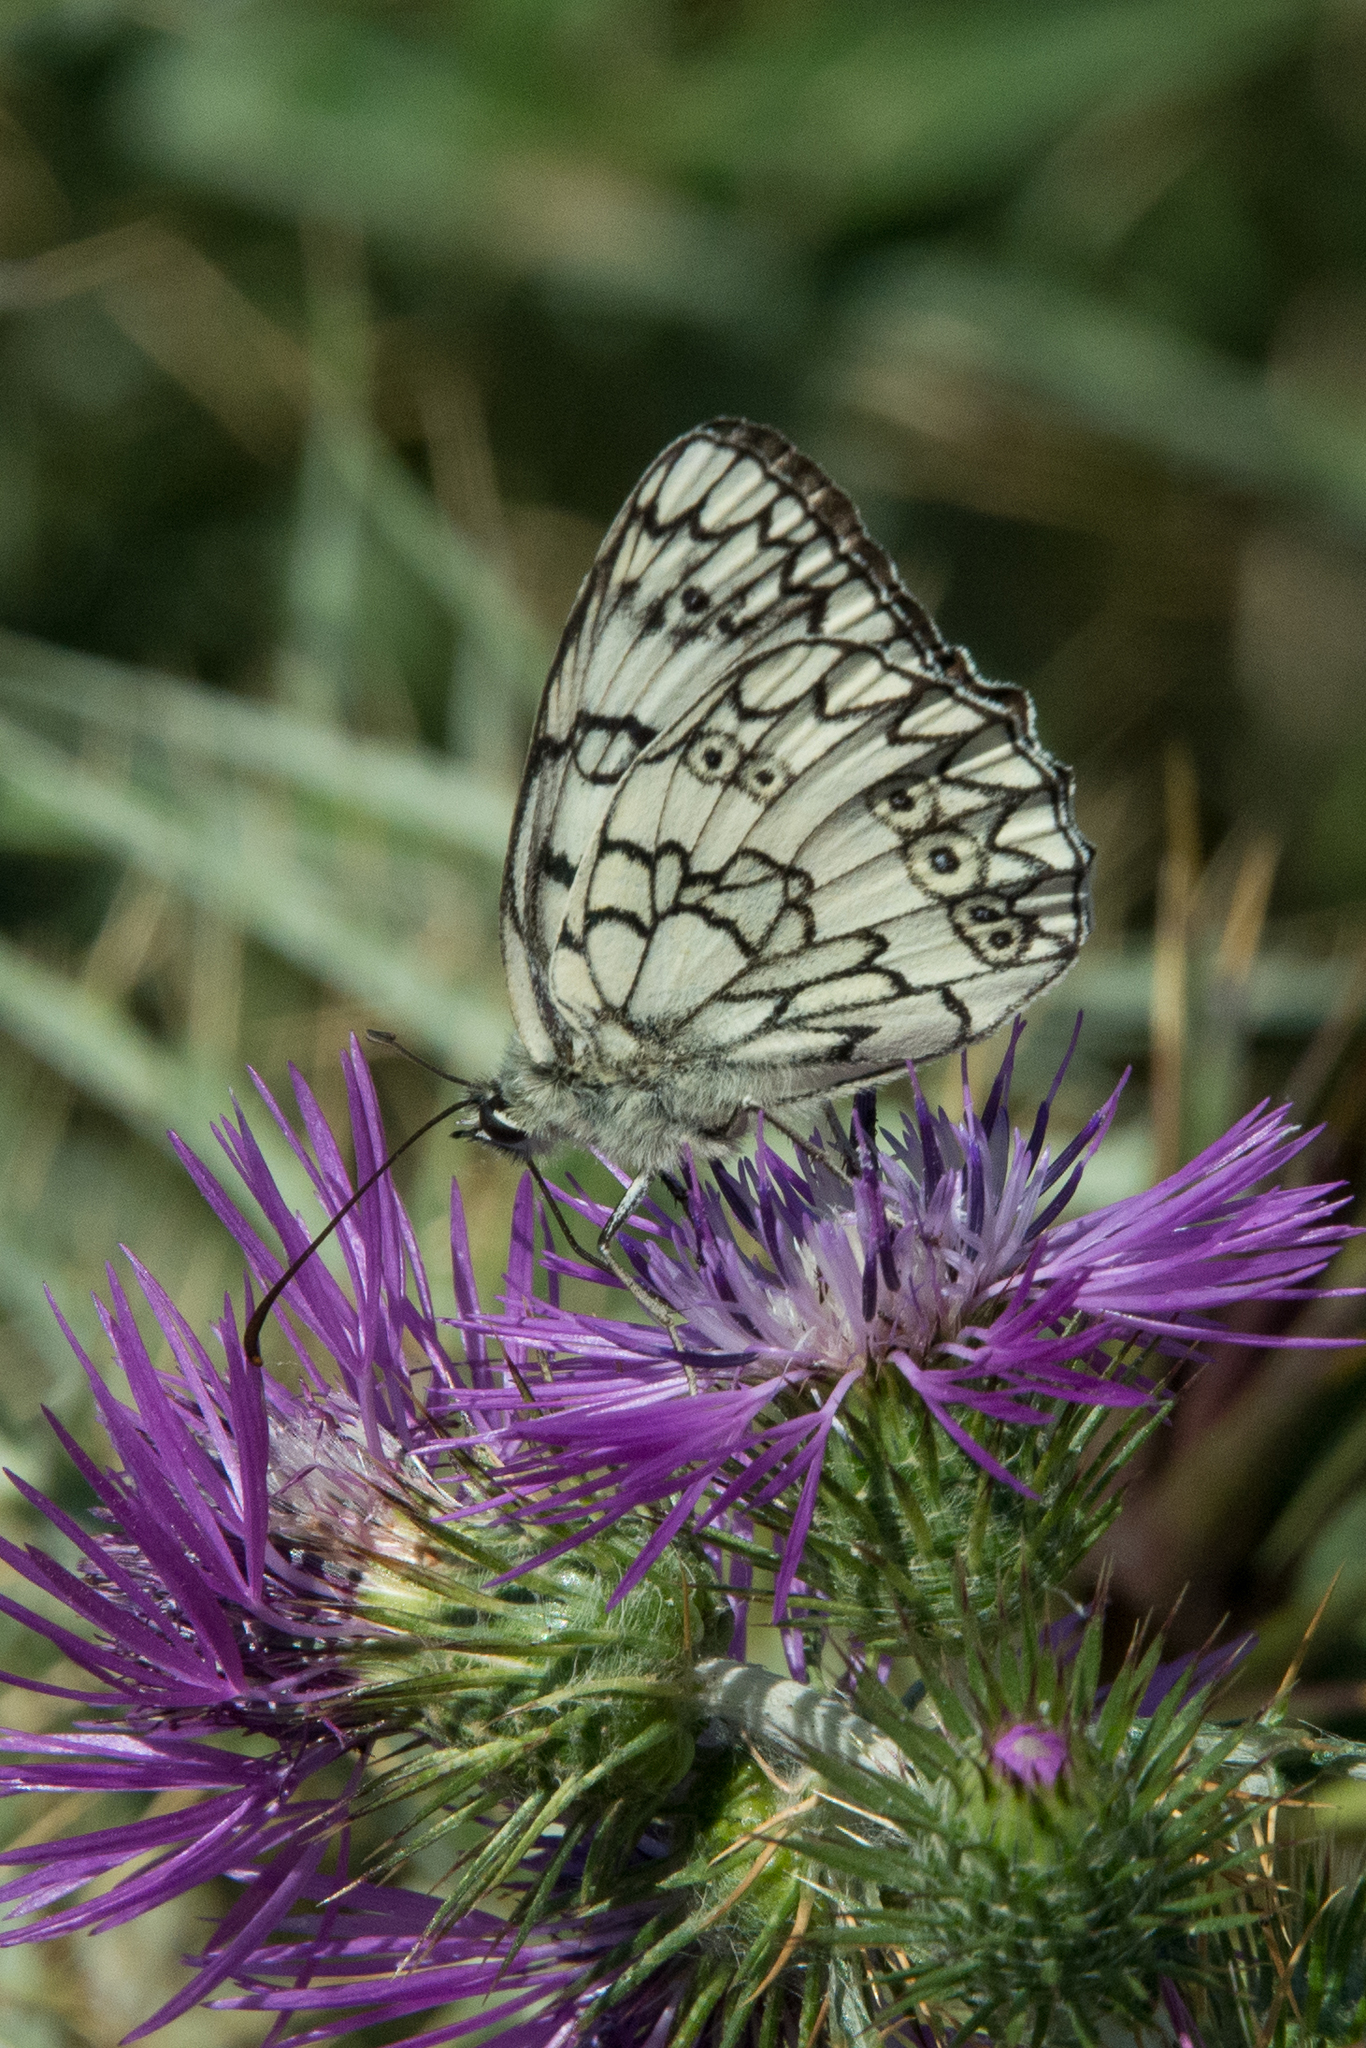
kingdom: Animalia
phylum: Arthropoda
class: Insecta
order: Lepidoptera
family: Nymphalidae
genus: Melanargia
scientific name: Melanargia japygia
